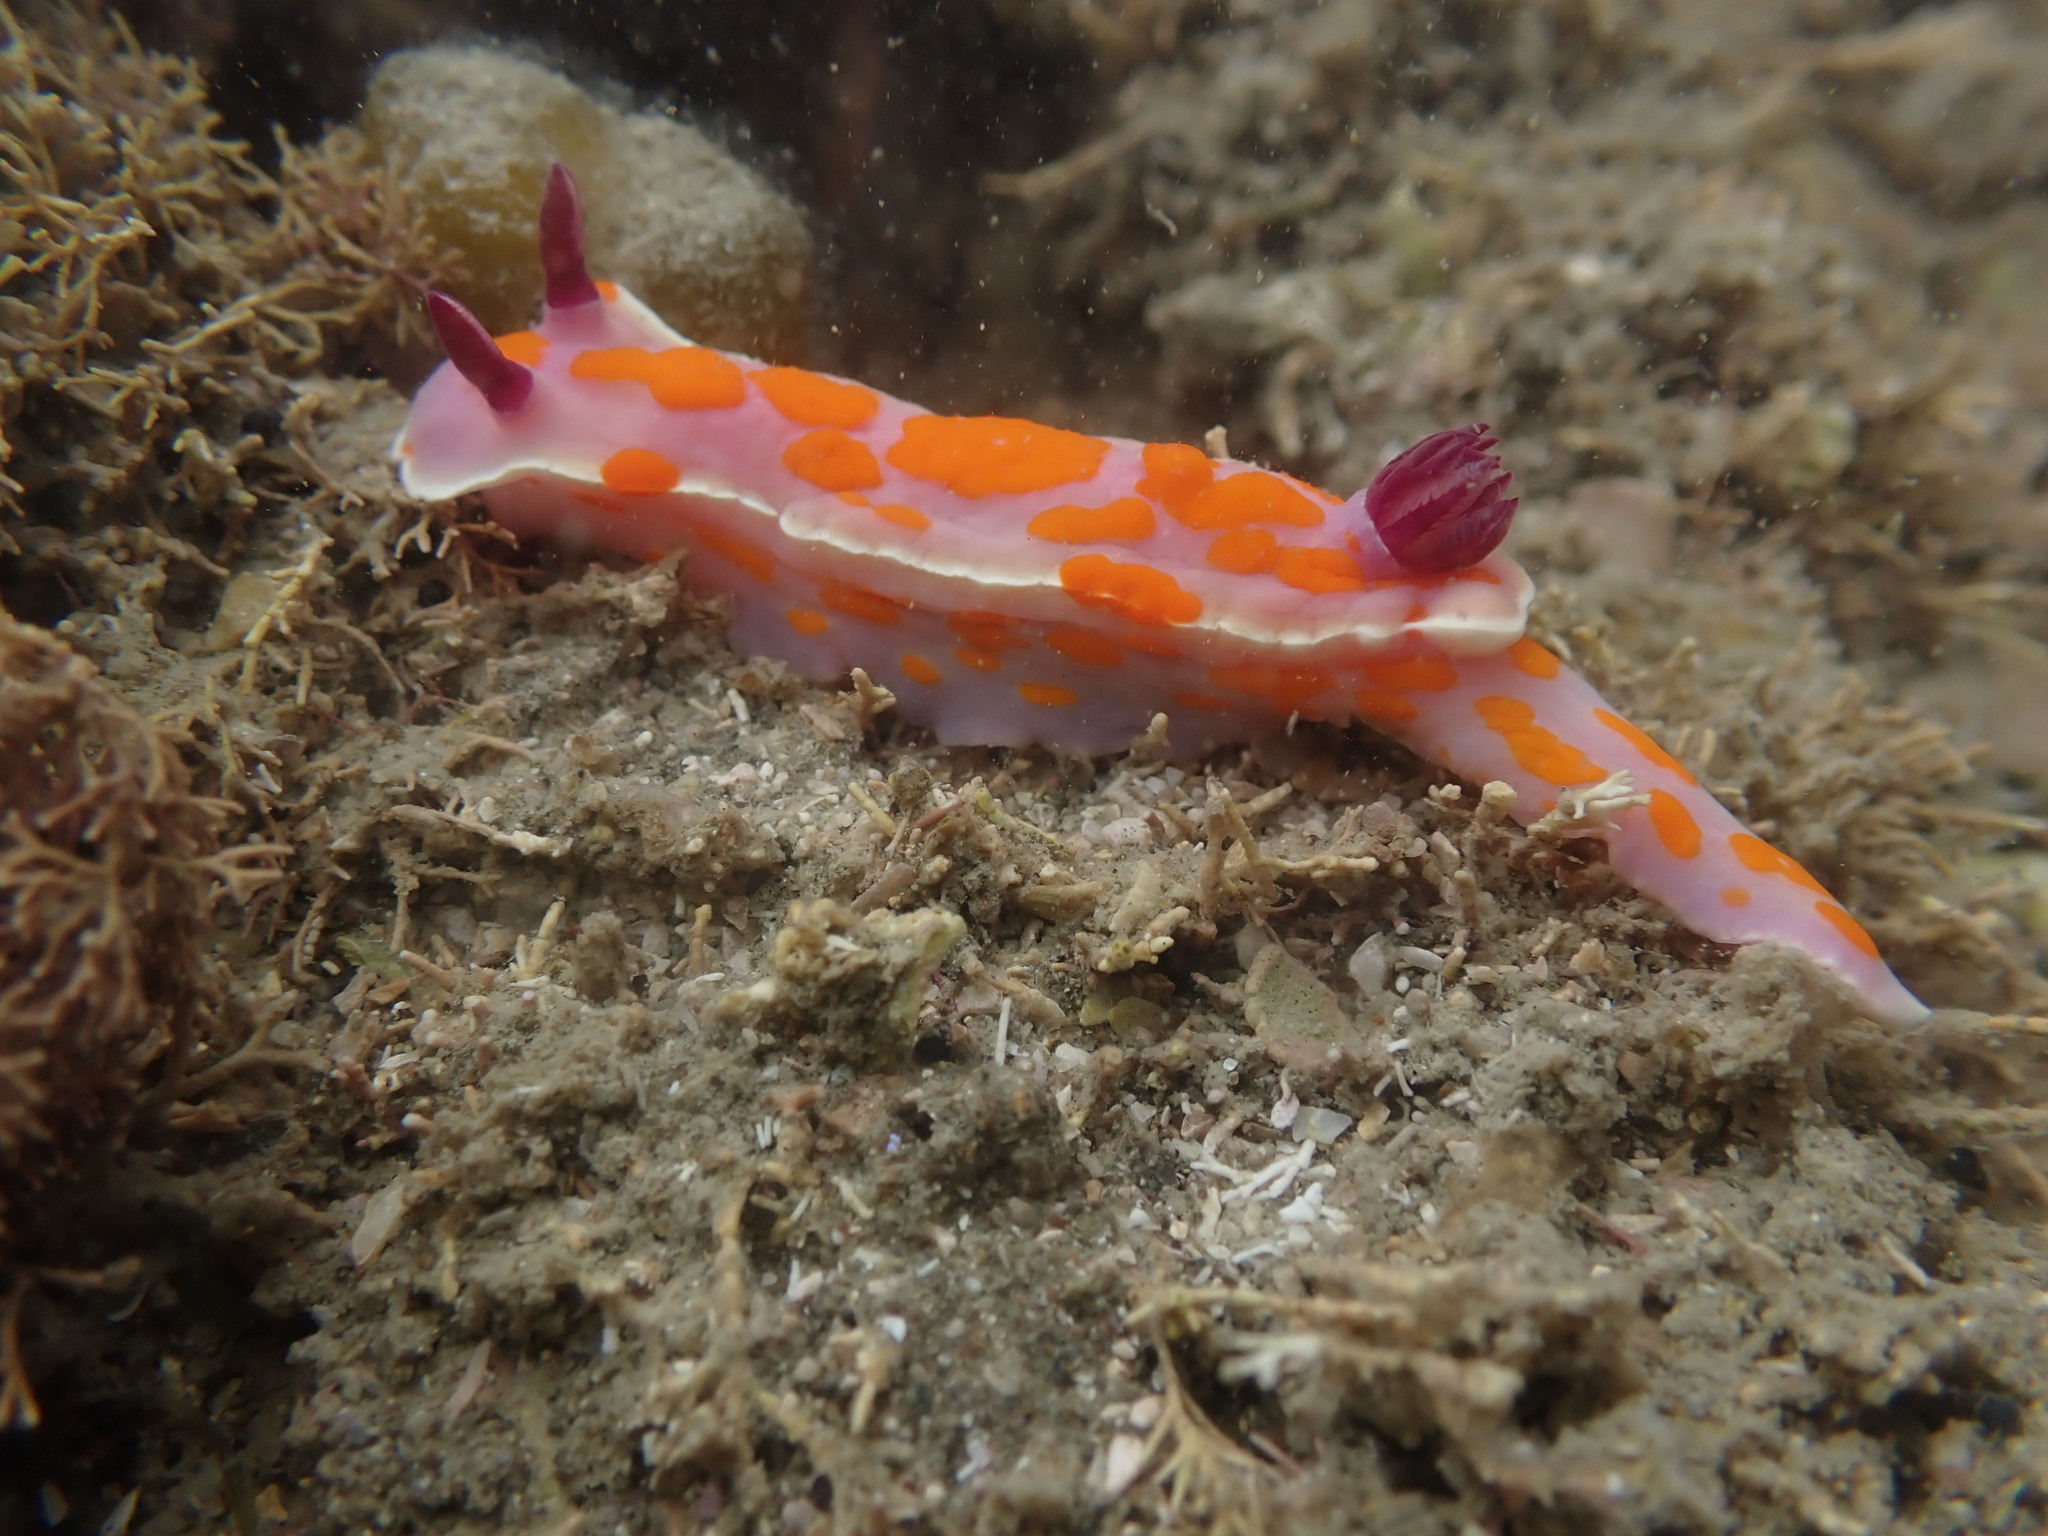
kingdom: Animalia
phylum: Mollusca
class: Gastropoda
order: Nudibranchia
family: Chromodorididae
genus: Ceratosoma
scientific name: Ceratosoma amoenum
